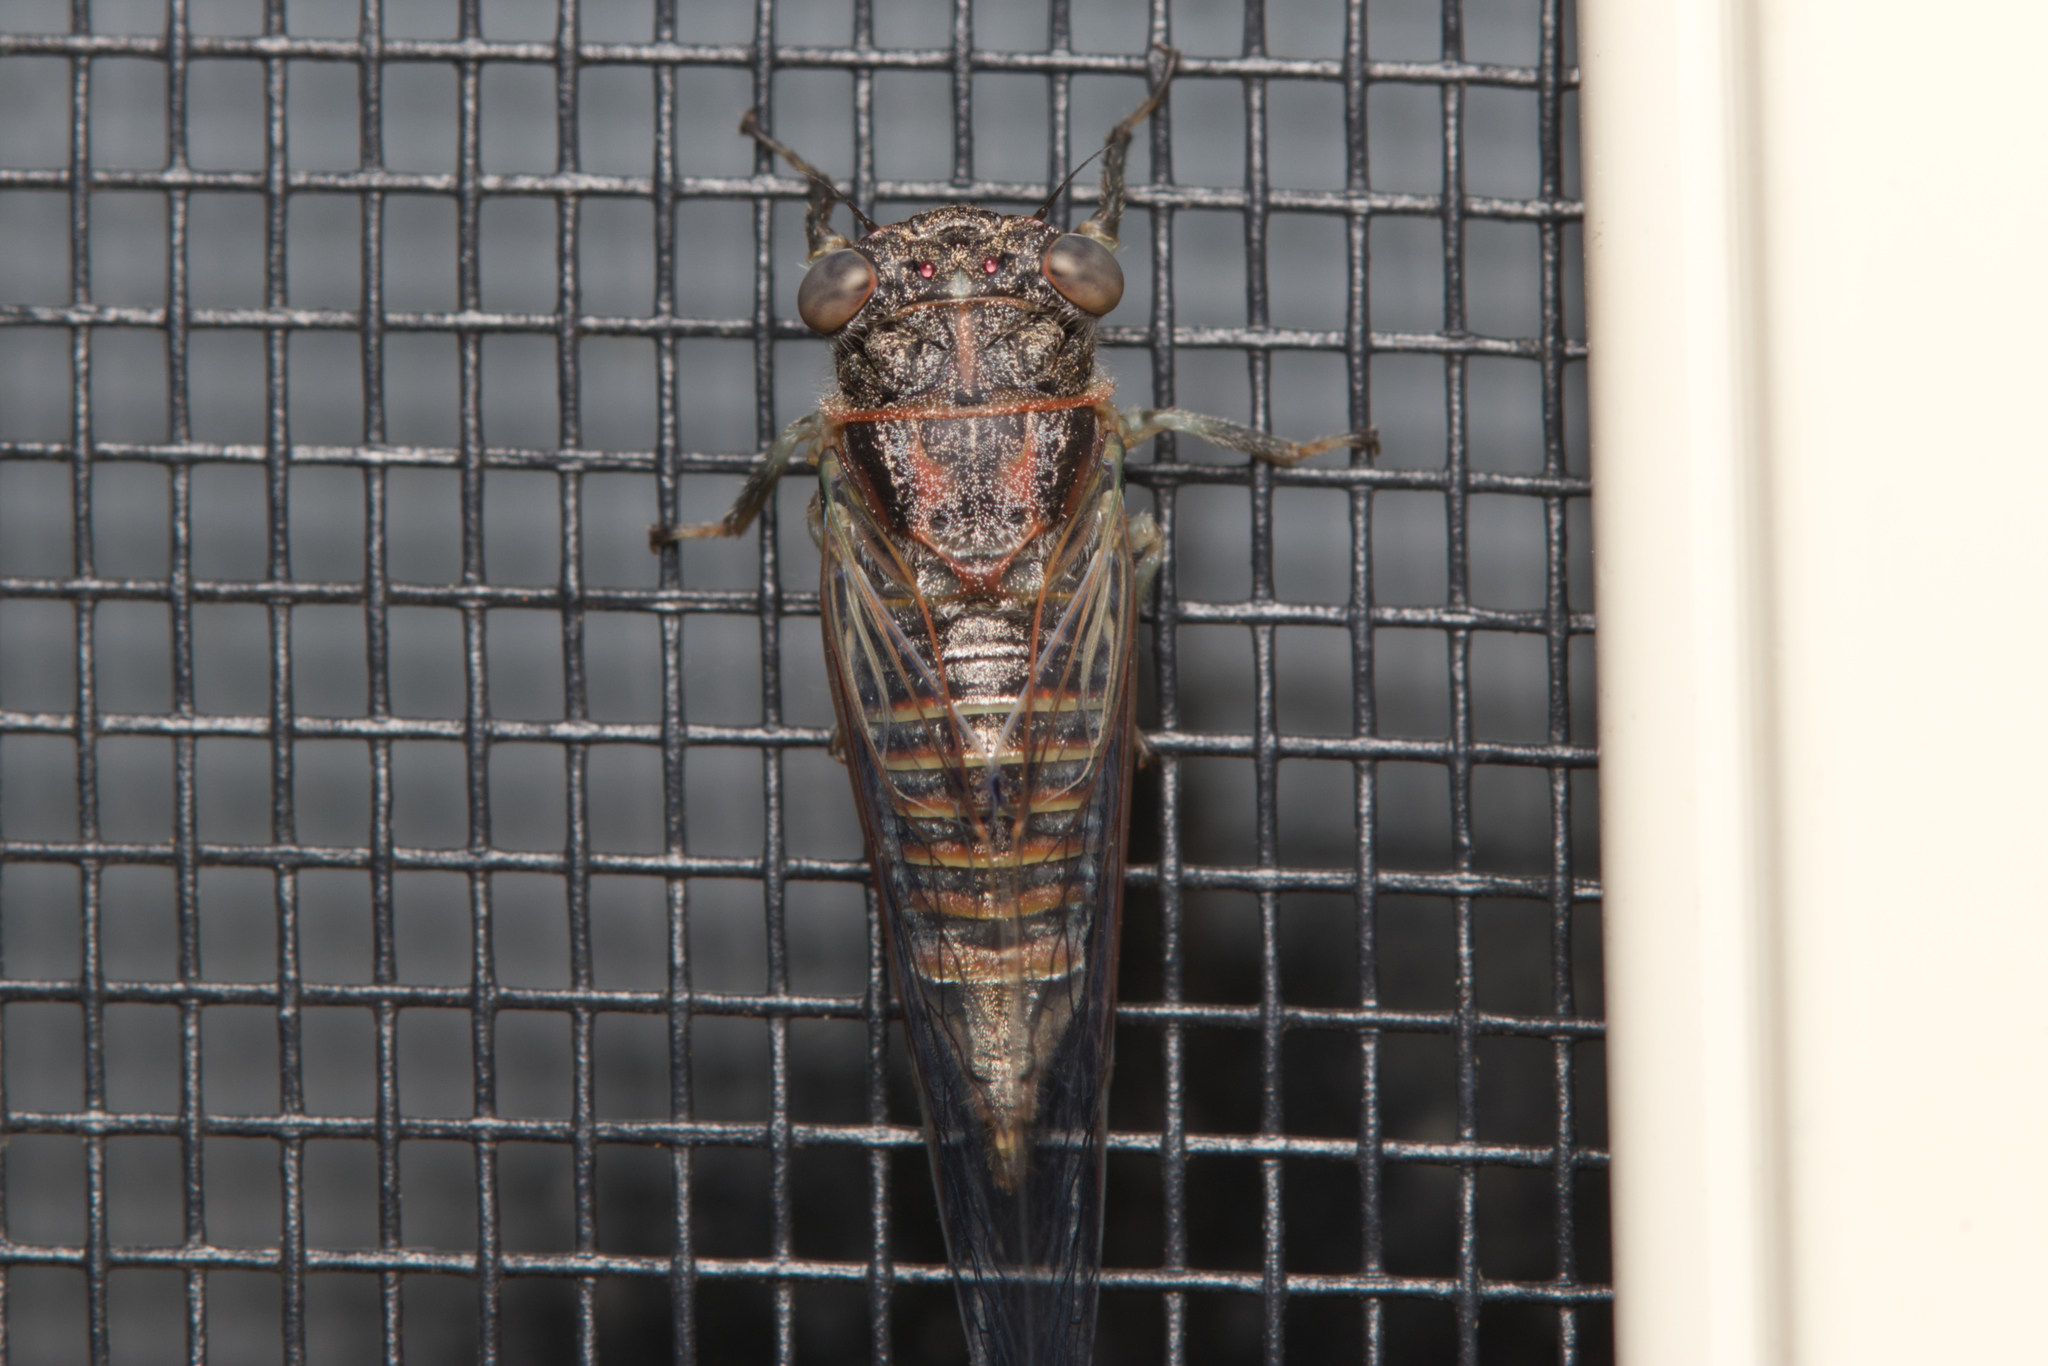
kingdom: Animalia
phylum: Arthropoda
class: Insecta
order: Hemiptera
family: Cicadidae
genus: Atrapsalta
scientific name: Atrapsalta corticina
